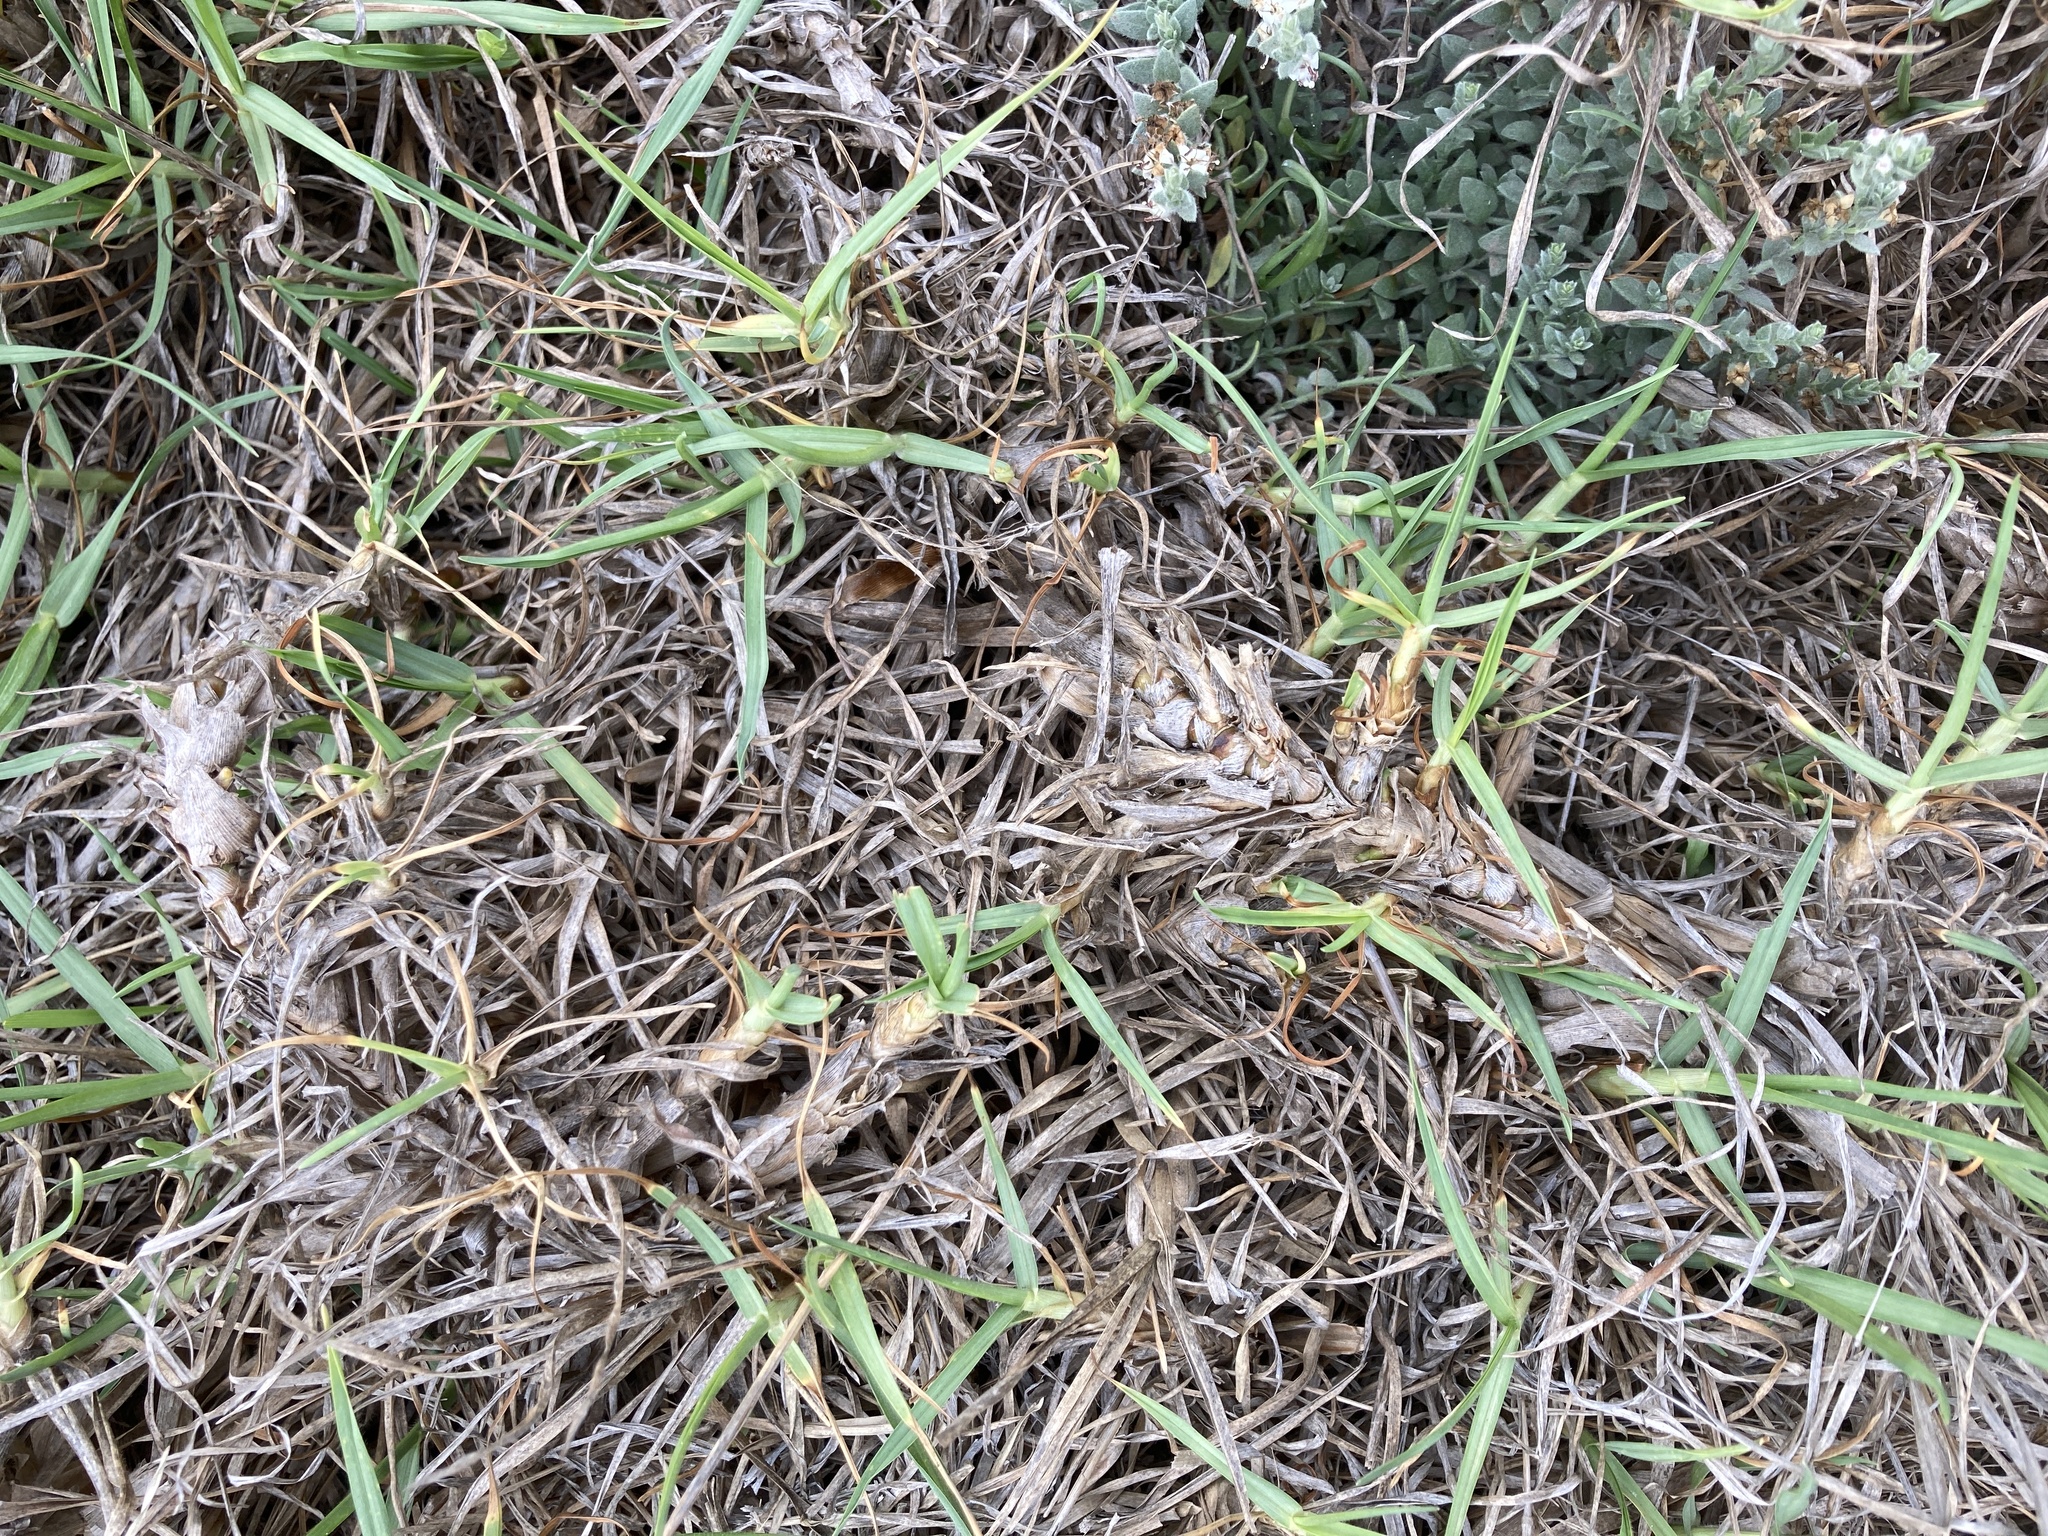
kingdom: Plantae
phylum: Tracheophyta
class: Liliopsida
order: Poales
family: Poaceae
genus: Cenchrus
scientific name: Cenchrus clandestinus
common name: Kikuyugrass
